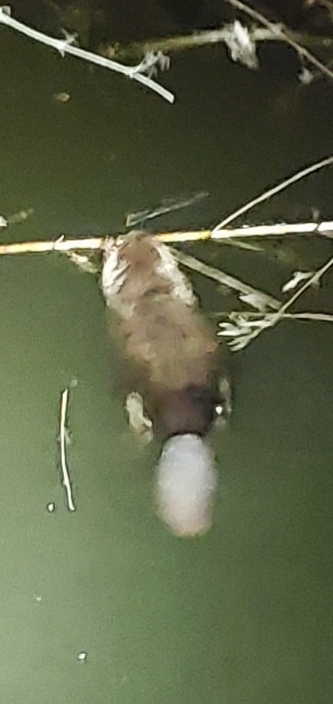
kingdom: Animalia
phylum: Chordata
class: Mammalia
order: Rodentia
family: Castoridae
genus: Castor
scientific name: Castor canadensis
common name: American beaver
